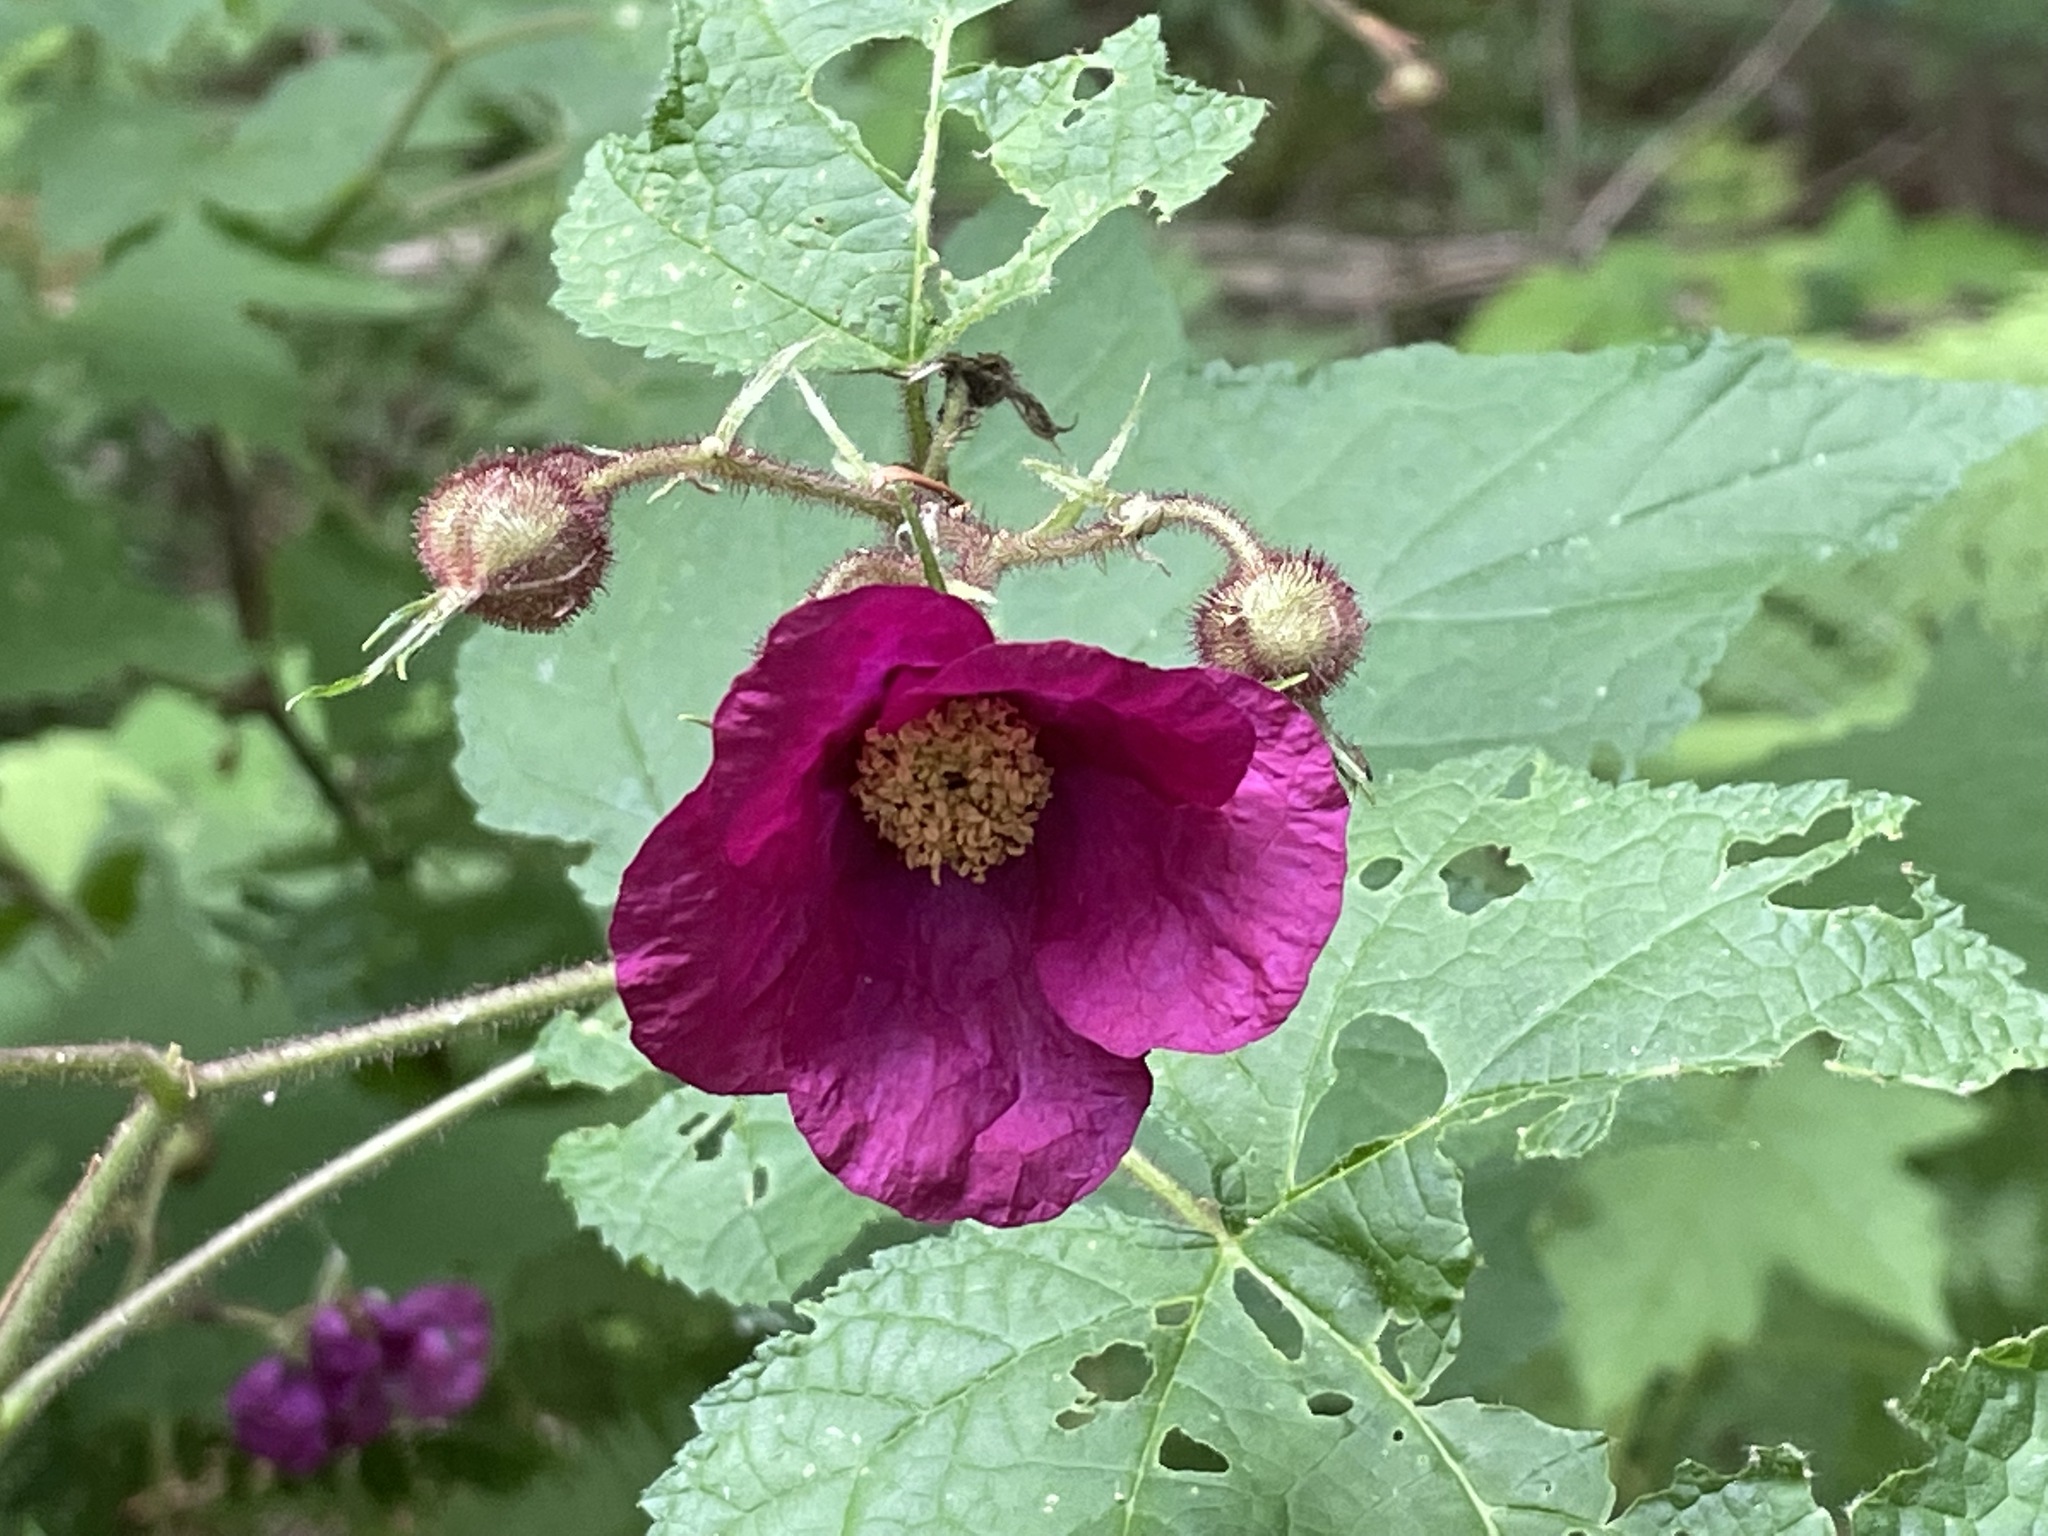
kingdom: Plantae
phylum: Tracheophyta
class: Magnoliopsida
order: Rosales
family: Rosaceae
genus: Rubus
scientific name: Rubus odoratus
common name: Purple-flowered raspberry
